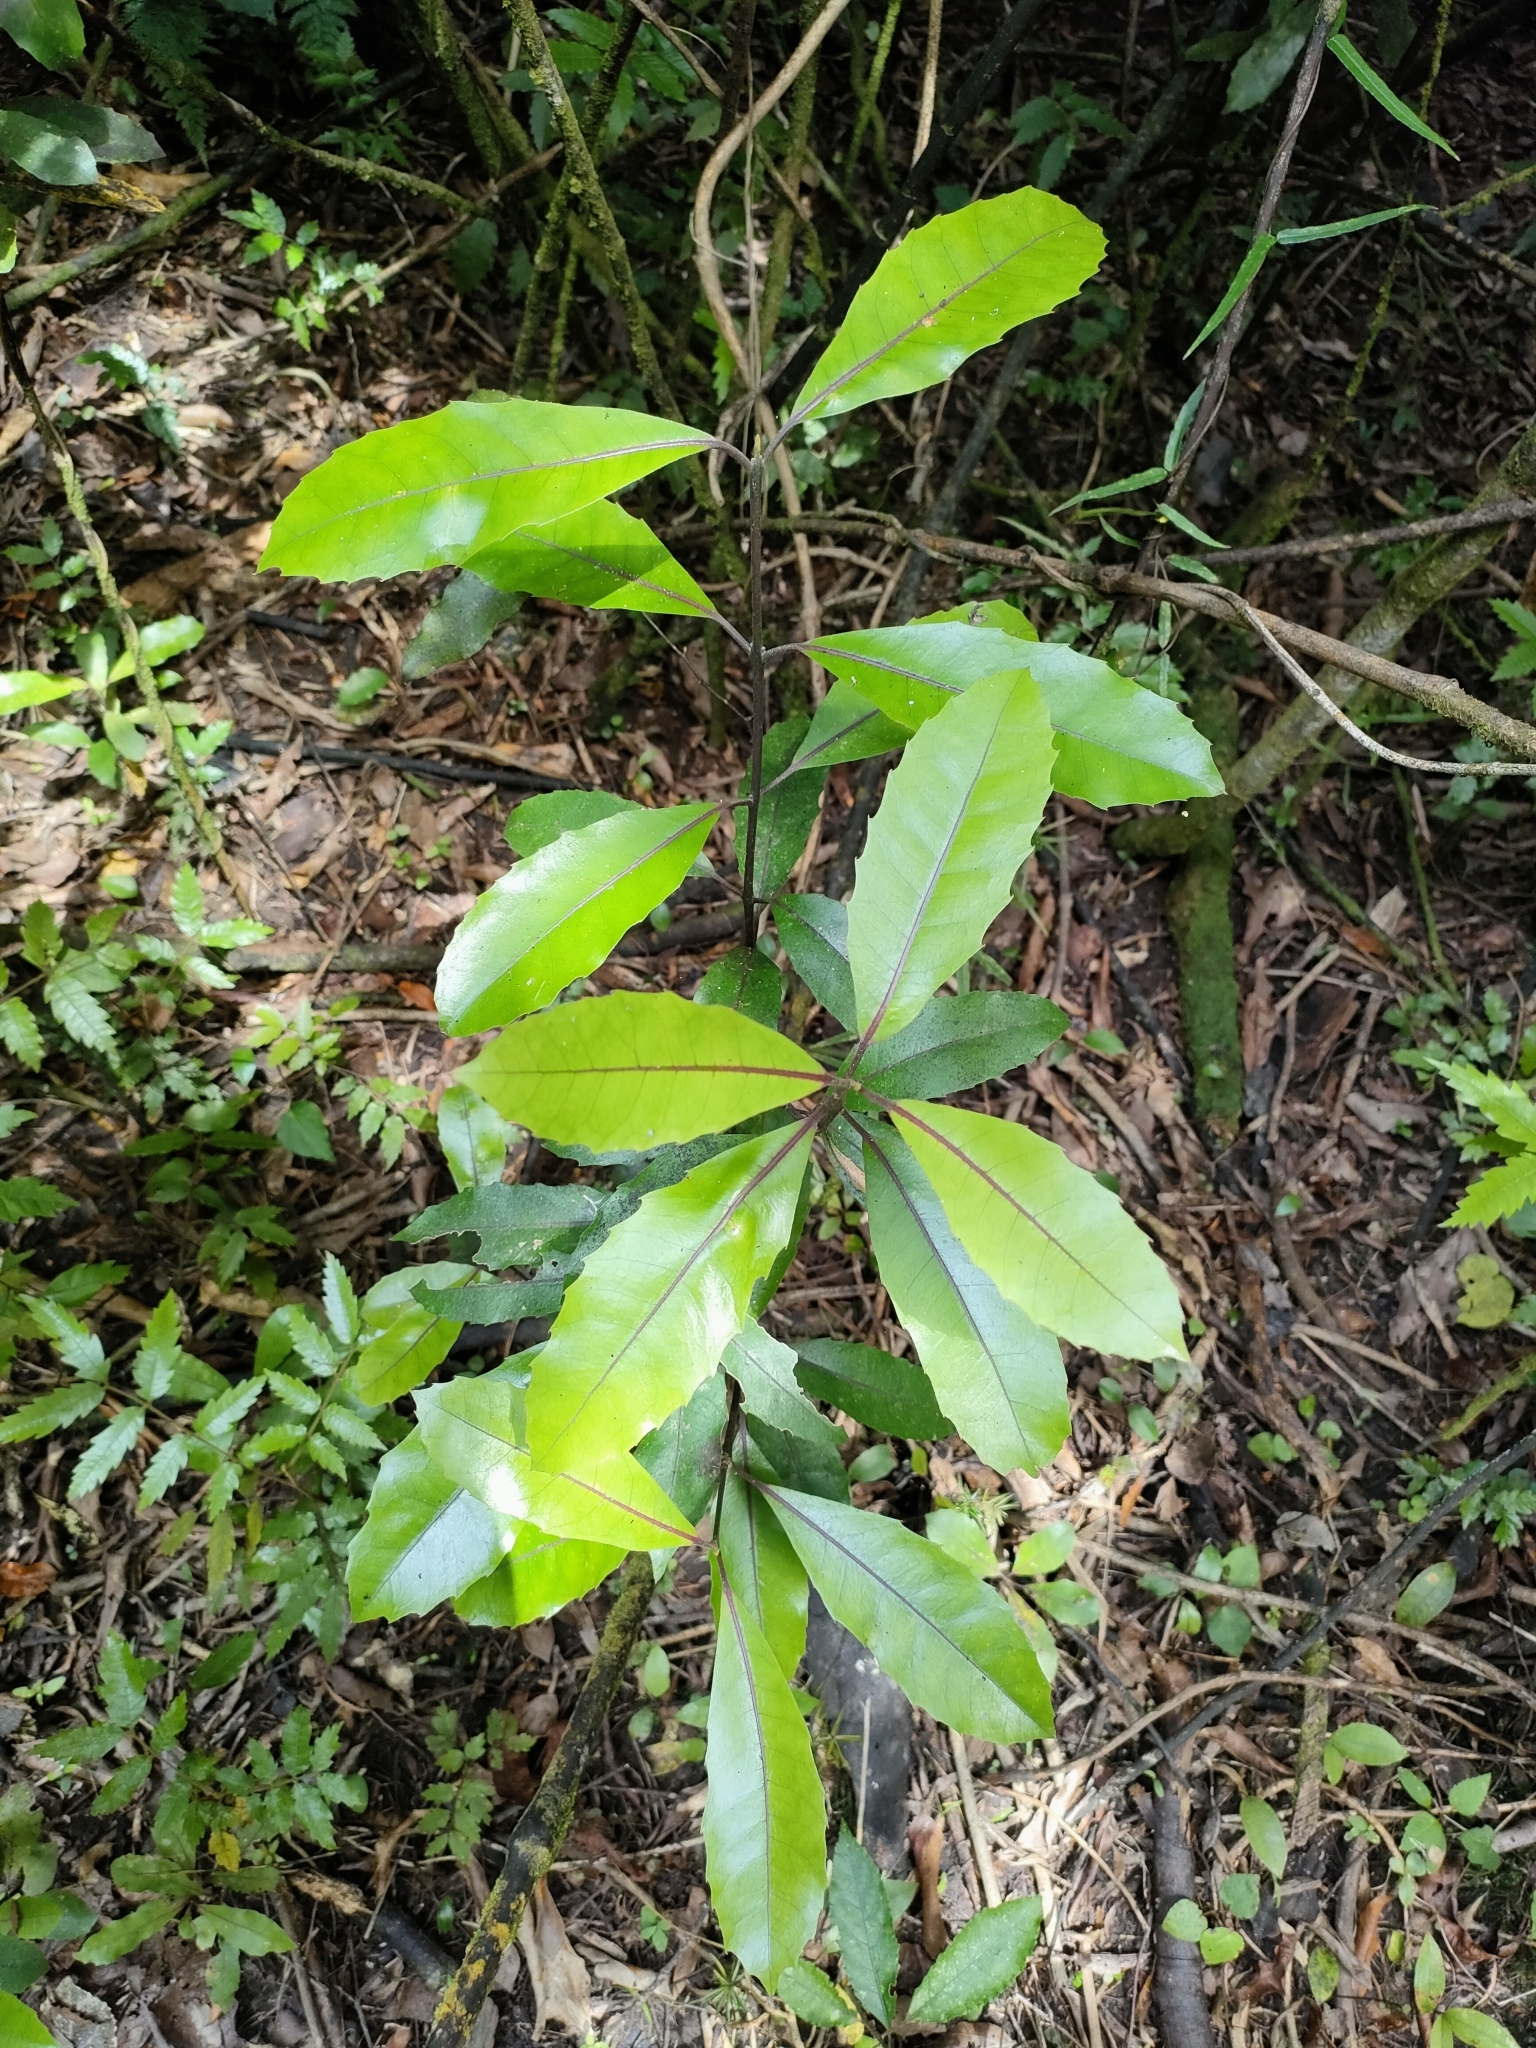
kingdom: Plantae
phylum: Tracheophyta
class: Magnoliopsida
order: Laurales
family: Monimiaceae
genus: Hedycarya
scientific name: Hedycarya arborea
